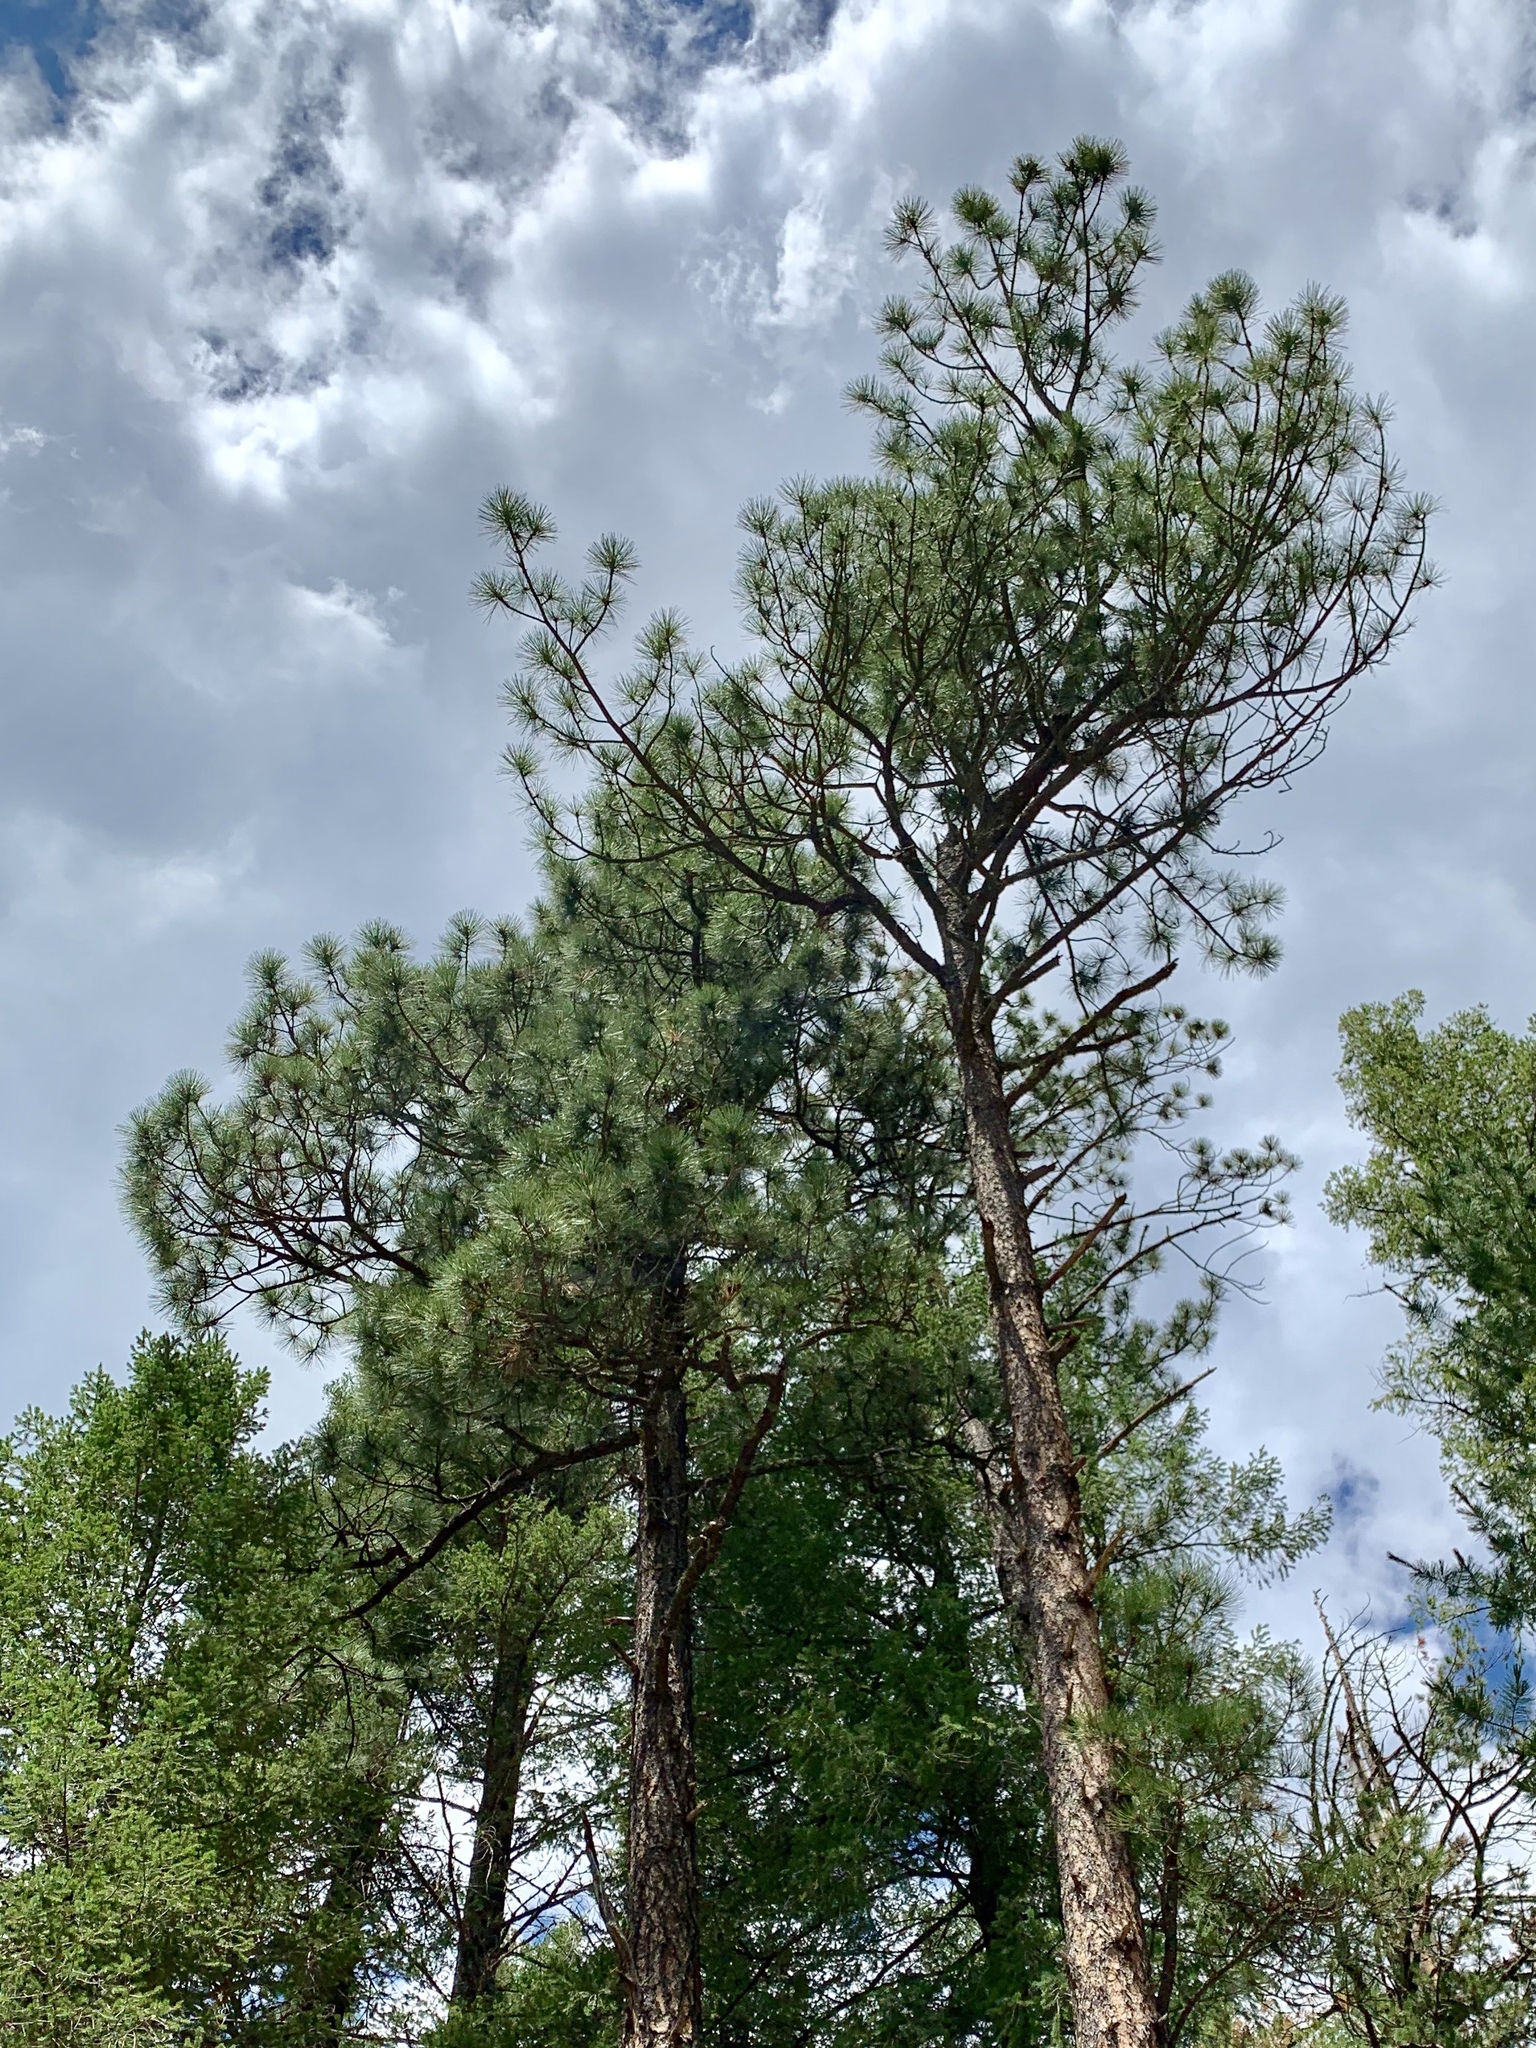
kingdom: Plantae
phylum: Tracheophyta
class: Pinopsida
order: Pinales
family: Pinaceae
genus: Pinus
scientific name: Pinus ponderosa
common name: Western yellow-pine
